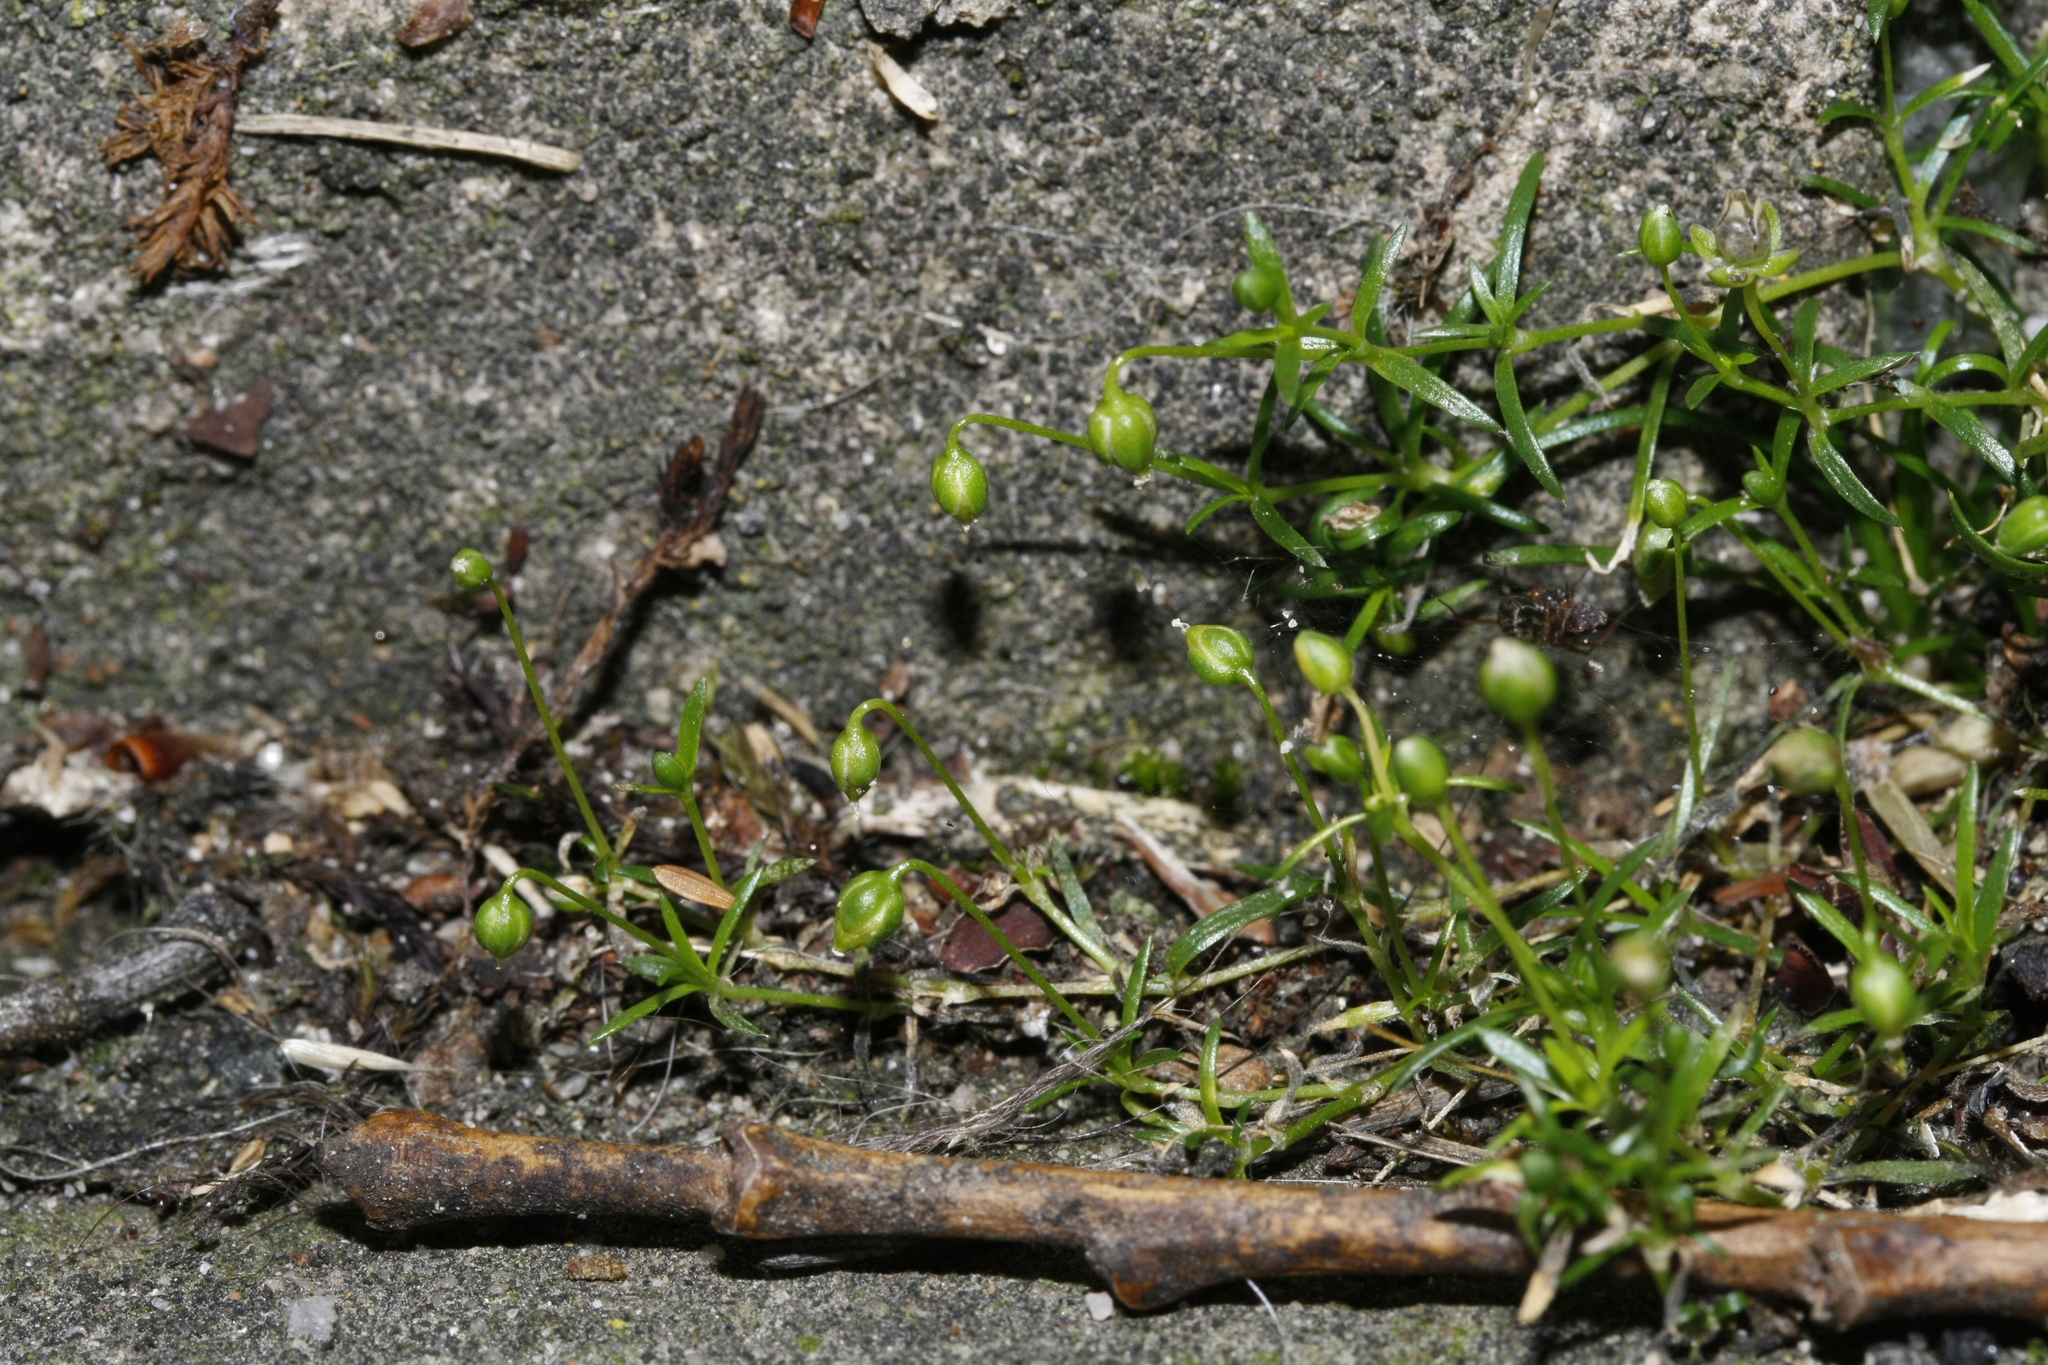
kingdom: Plantae
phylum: Tracheophyta
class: Magnoliopsida
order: Caryophyllales
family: Caryophyllaceae
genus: Sagina
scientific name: Sagina procumbens
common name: Procumbent pearlwort
